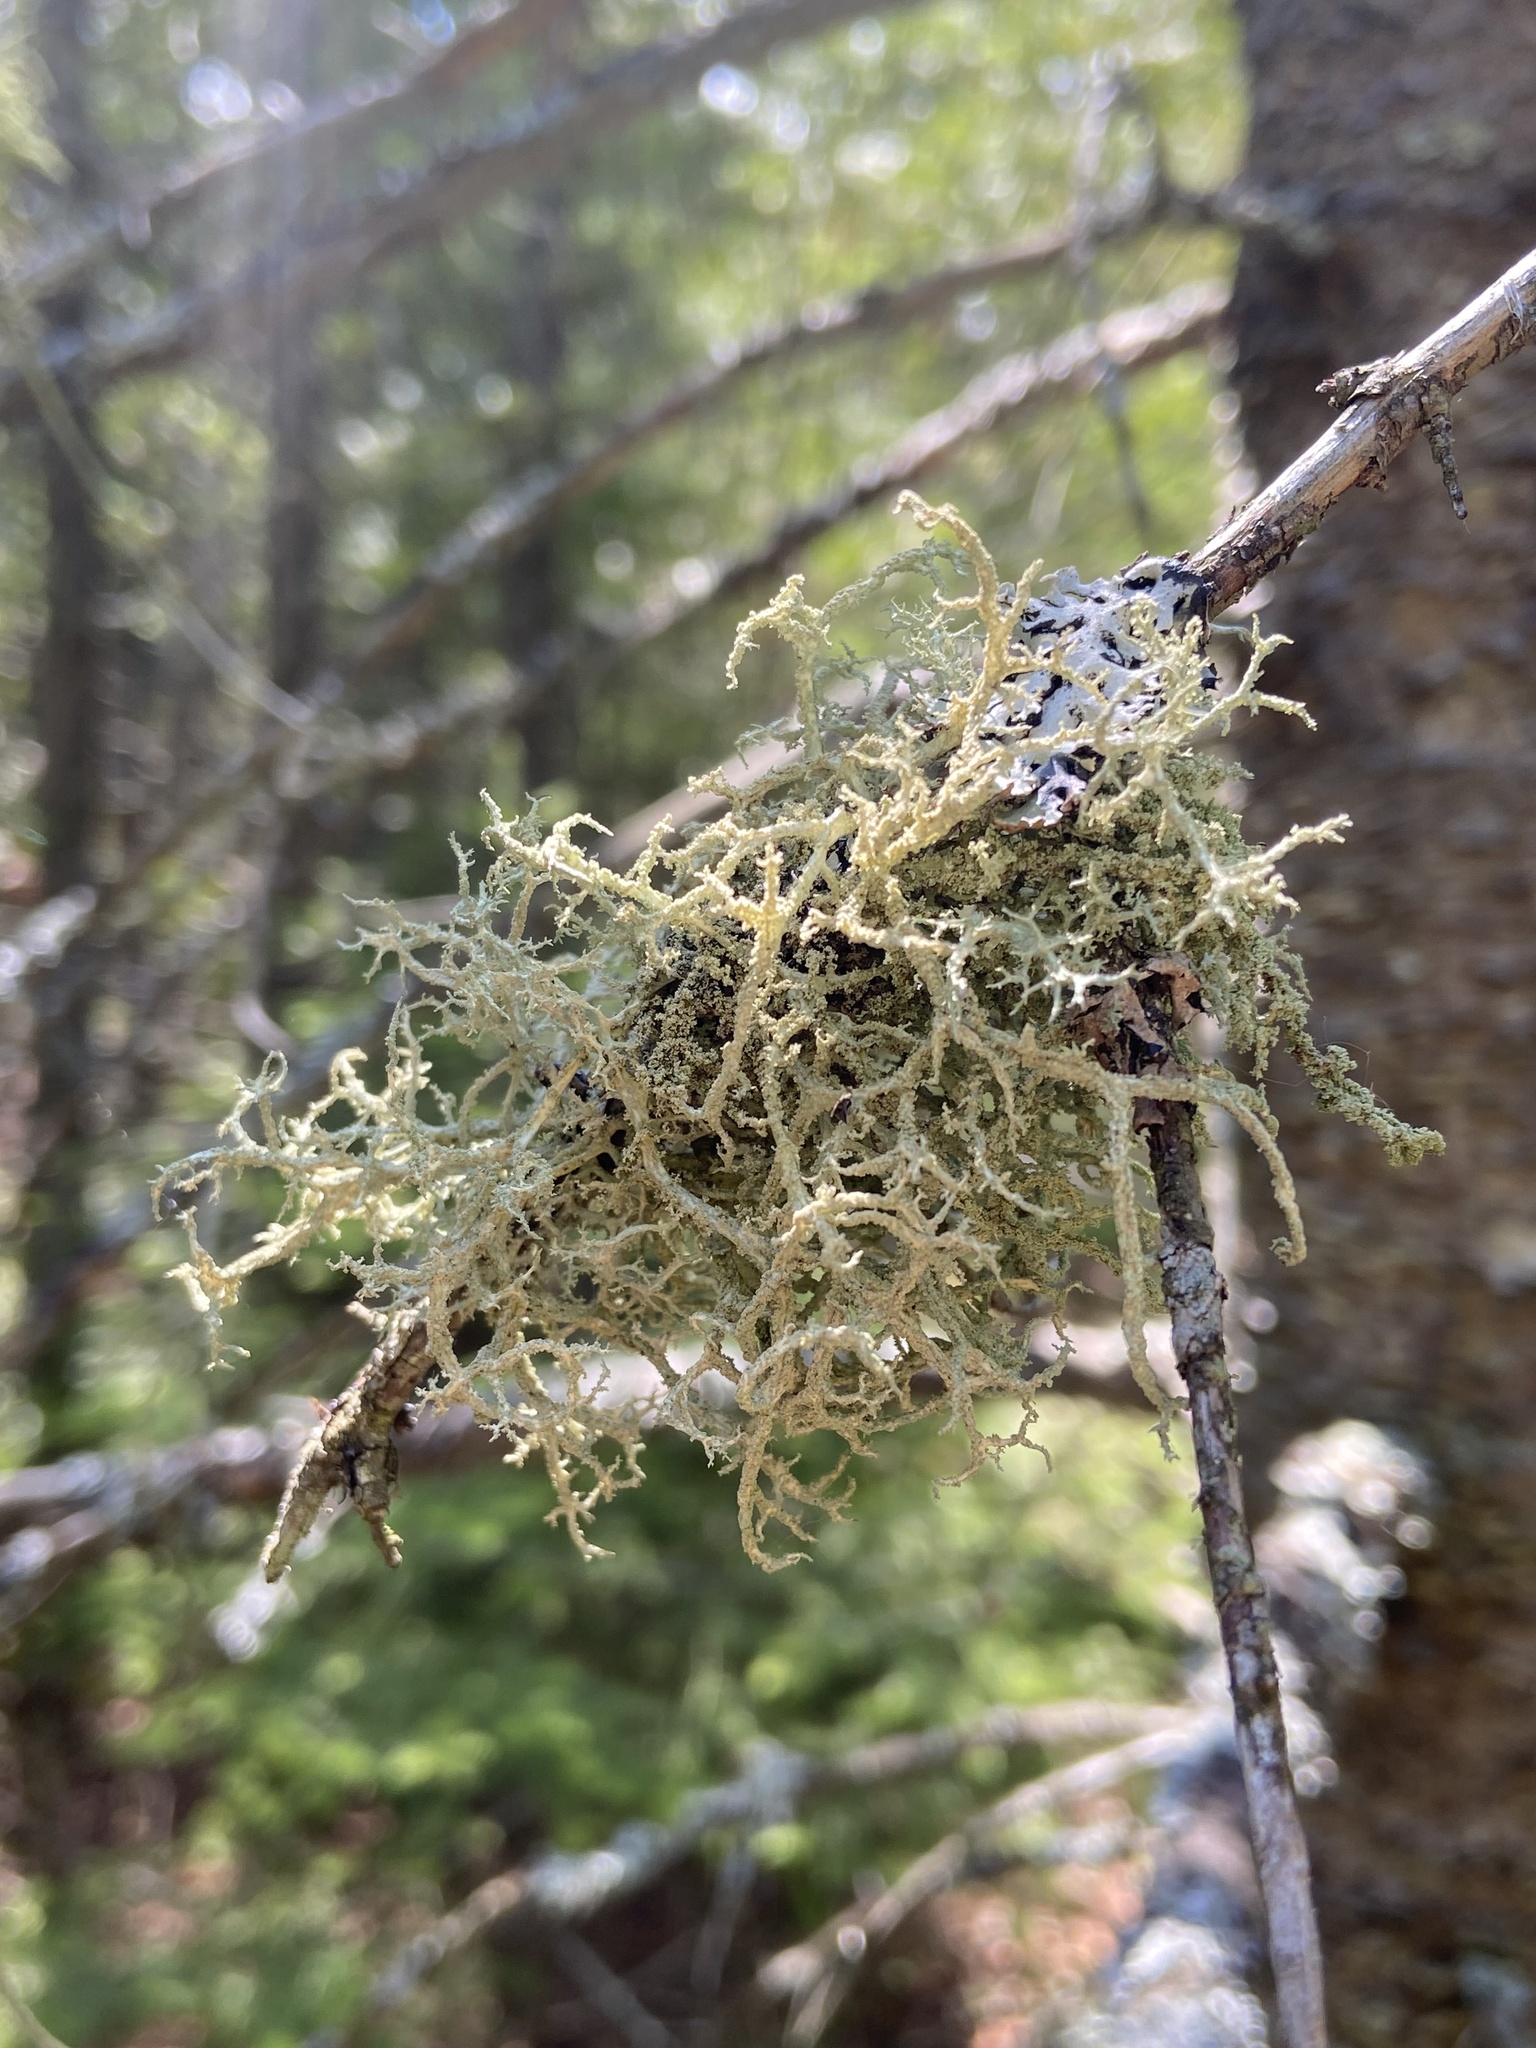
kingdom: Fungi
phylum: Ascomycota
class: Lecanoromycetes
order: Lecanorales
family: Parmeliaceae
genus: Evernia
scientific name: Evernia mesomorpha
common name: Boreal oak moss lichen
